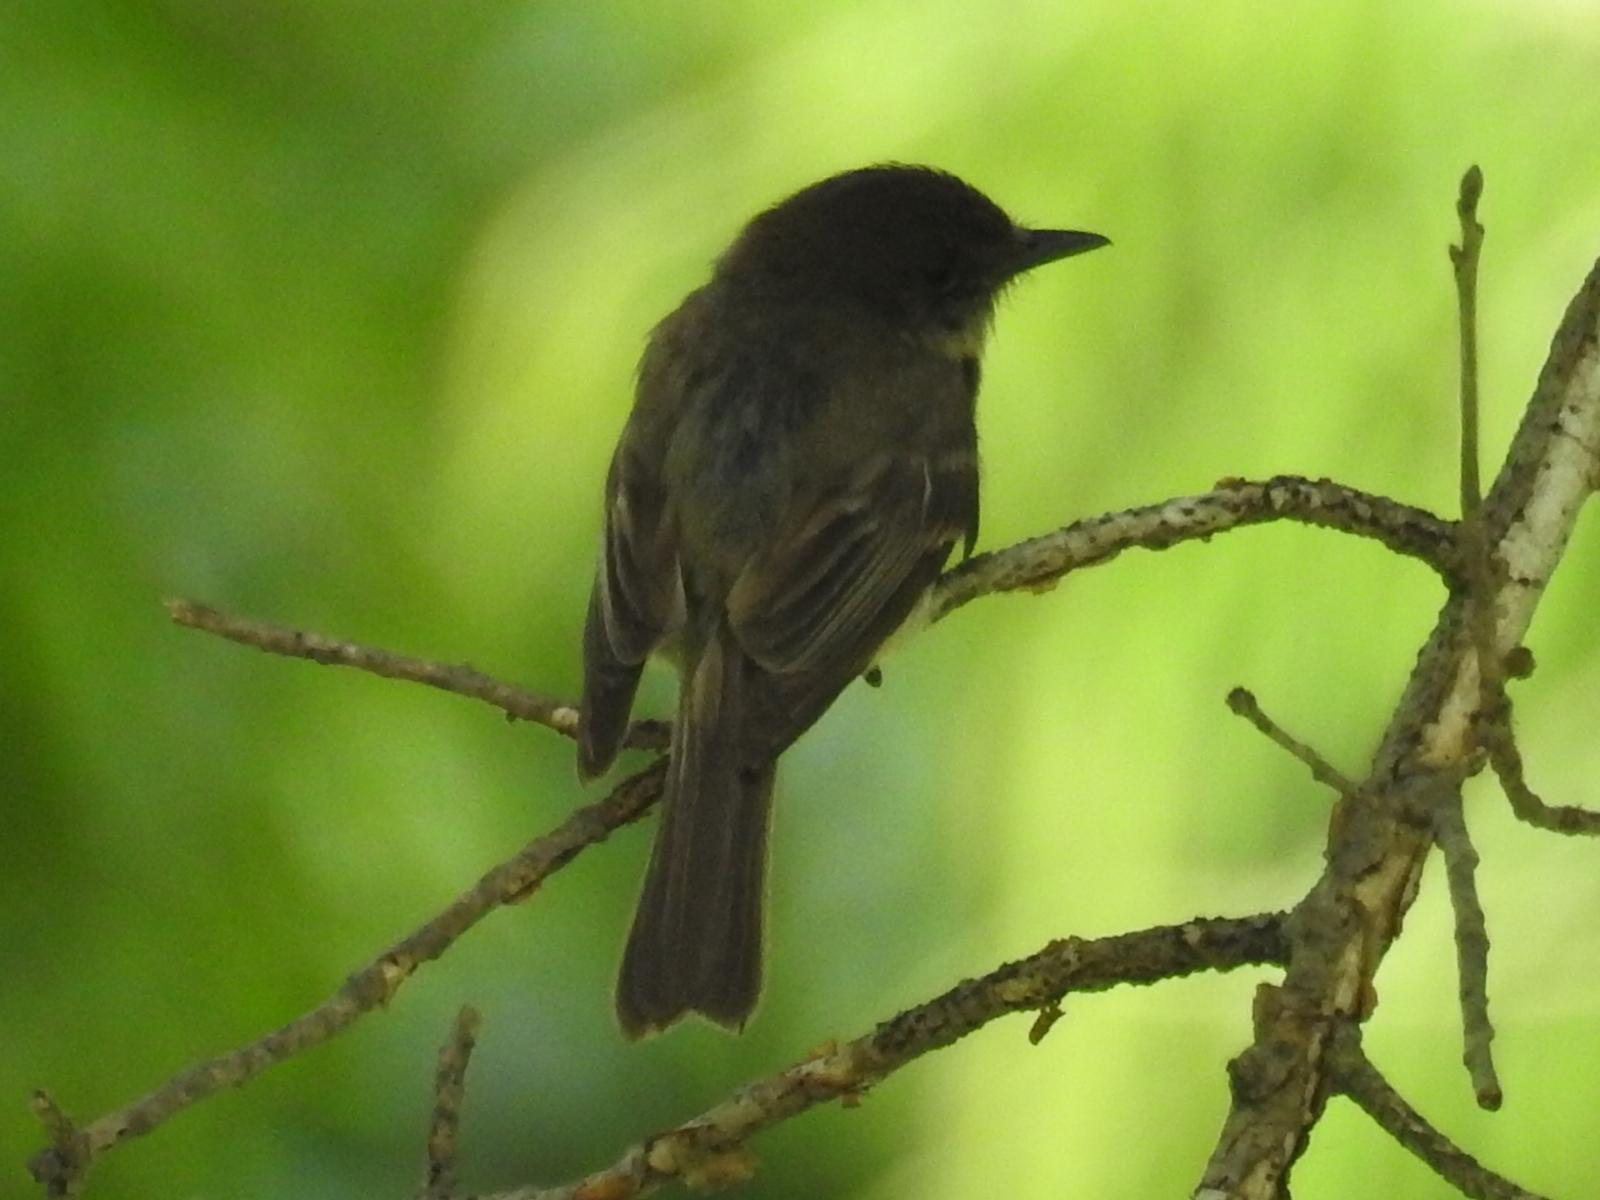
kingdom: Animalia
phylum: Chordata
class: Aves
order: Passeriformes
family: Tyrannidae
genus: Sayornis
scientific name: Sayornis phoebe
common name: Eastern phoebe
